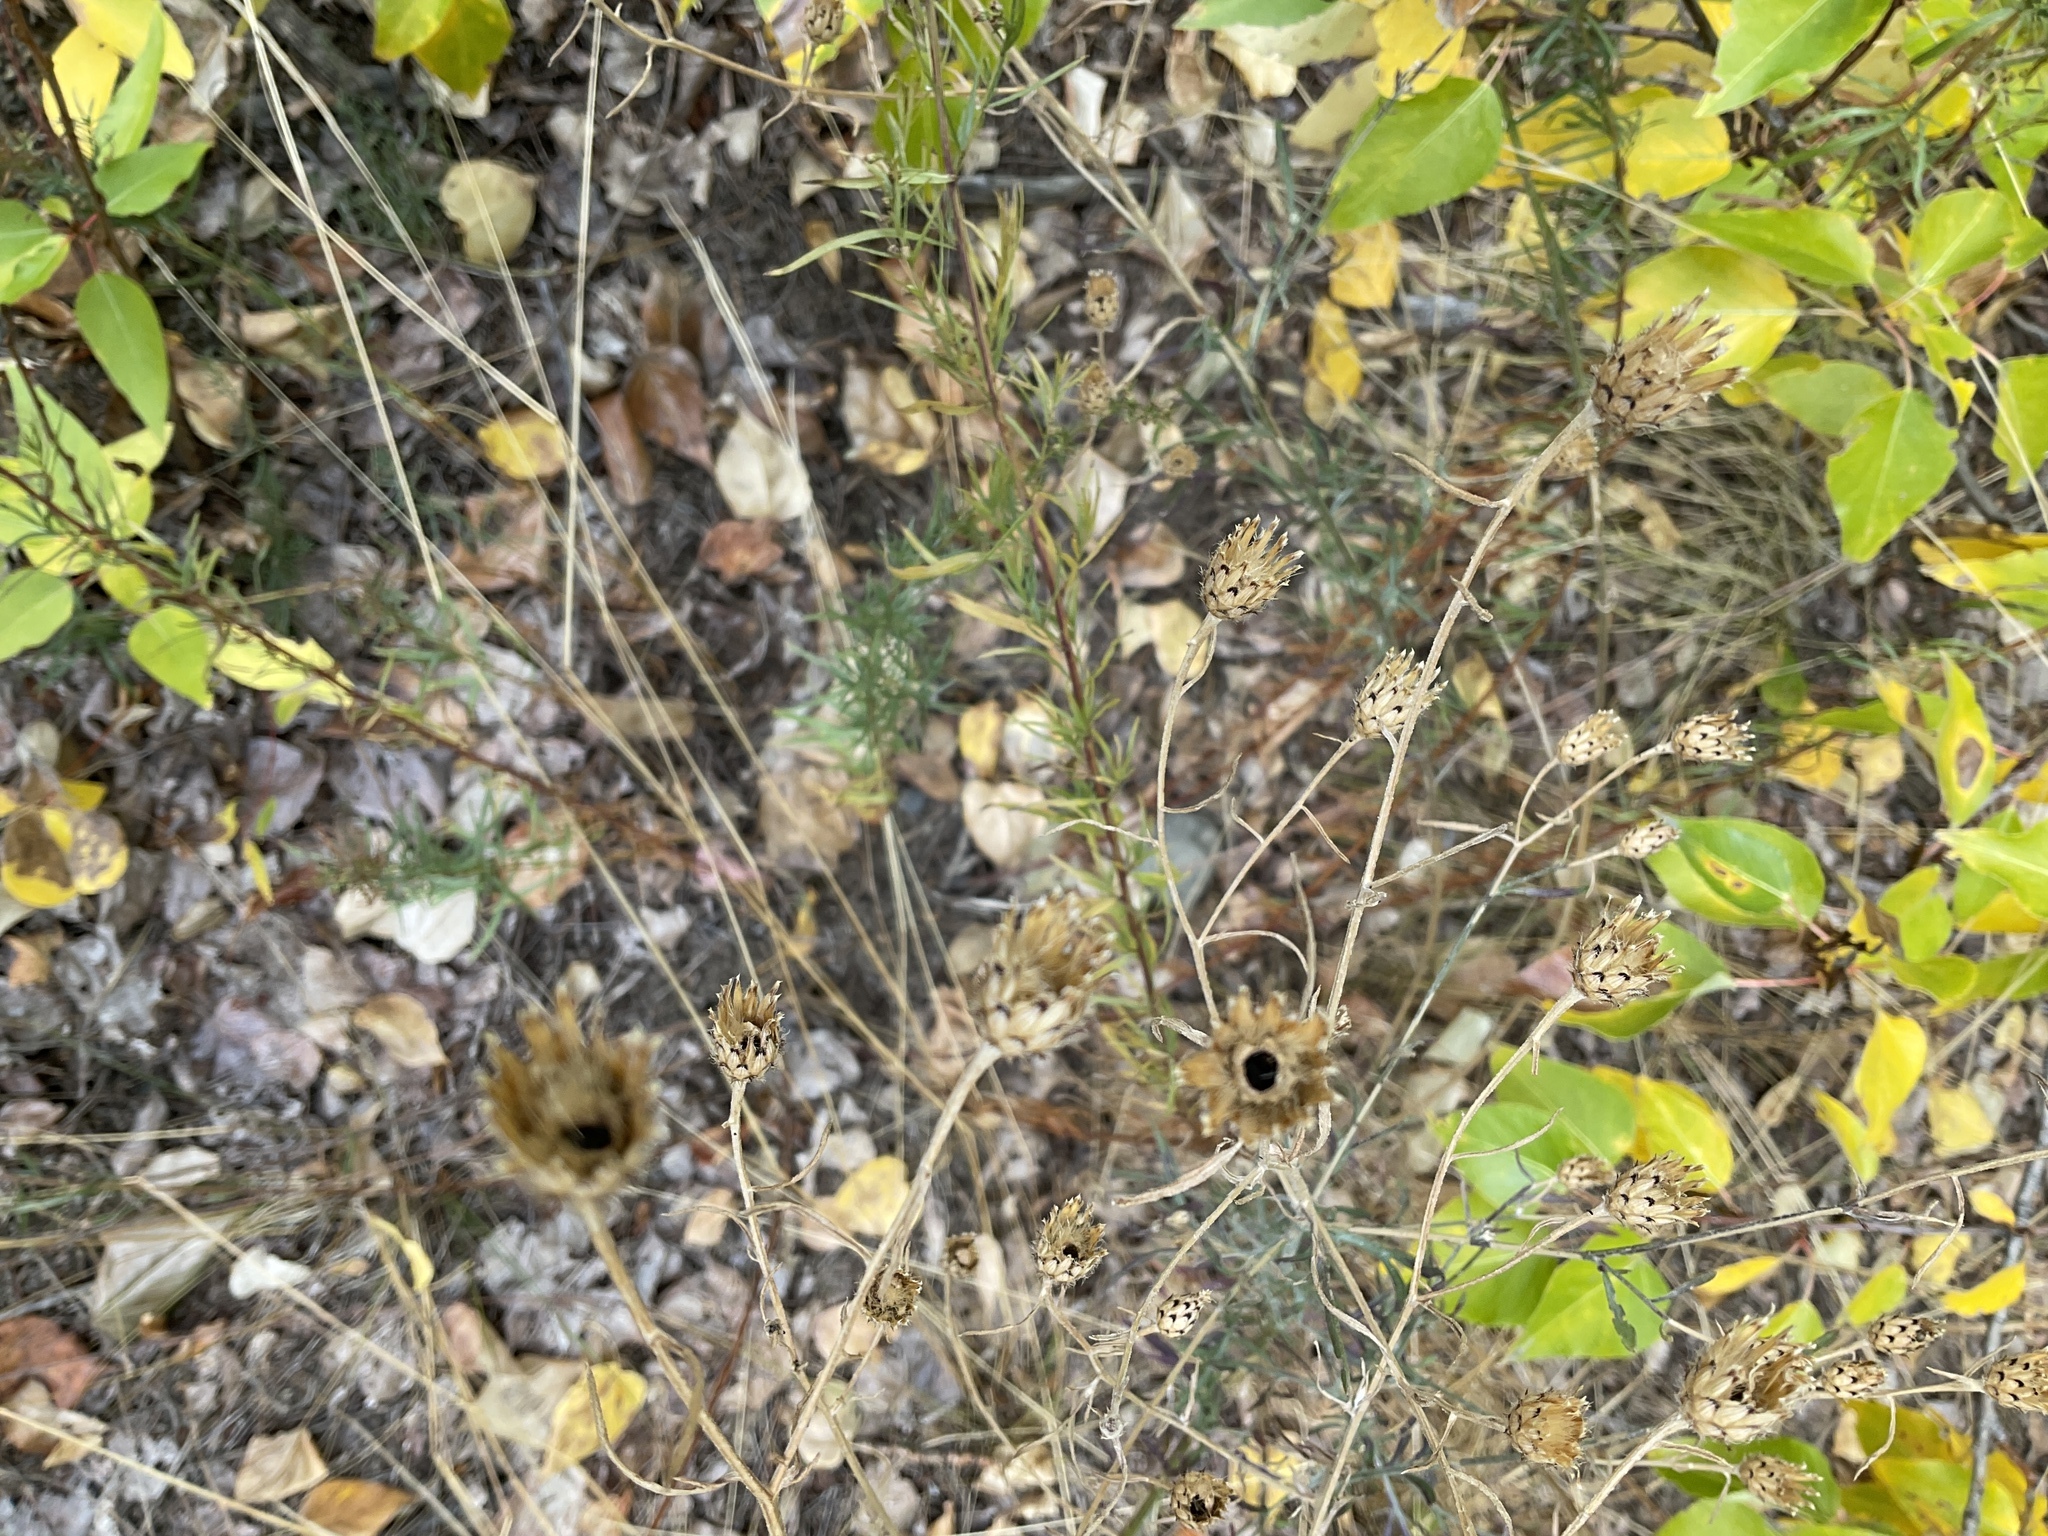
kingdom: Plantae
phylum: Tracheophyta
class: Magnoliopsida
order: Asterales
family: Asteraceae
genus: Centaurea
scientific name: Centaurea stoebe
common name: Spotted knapweed
